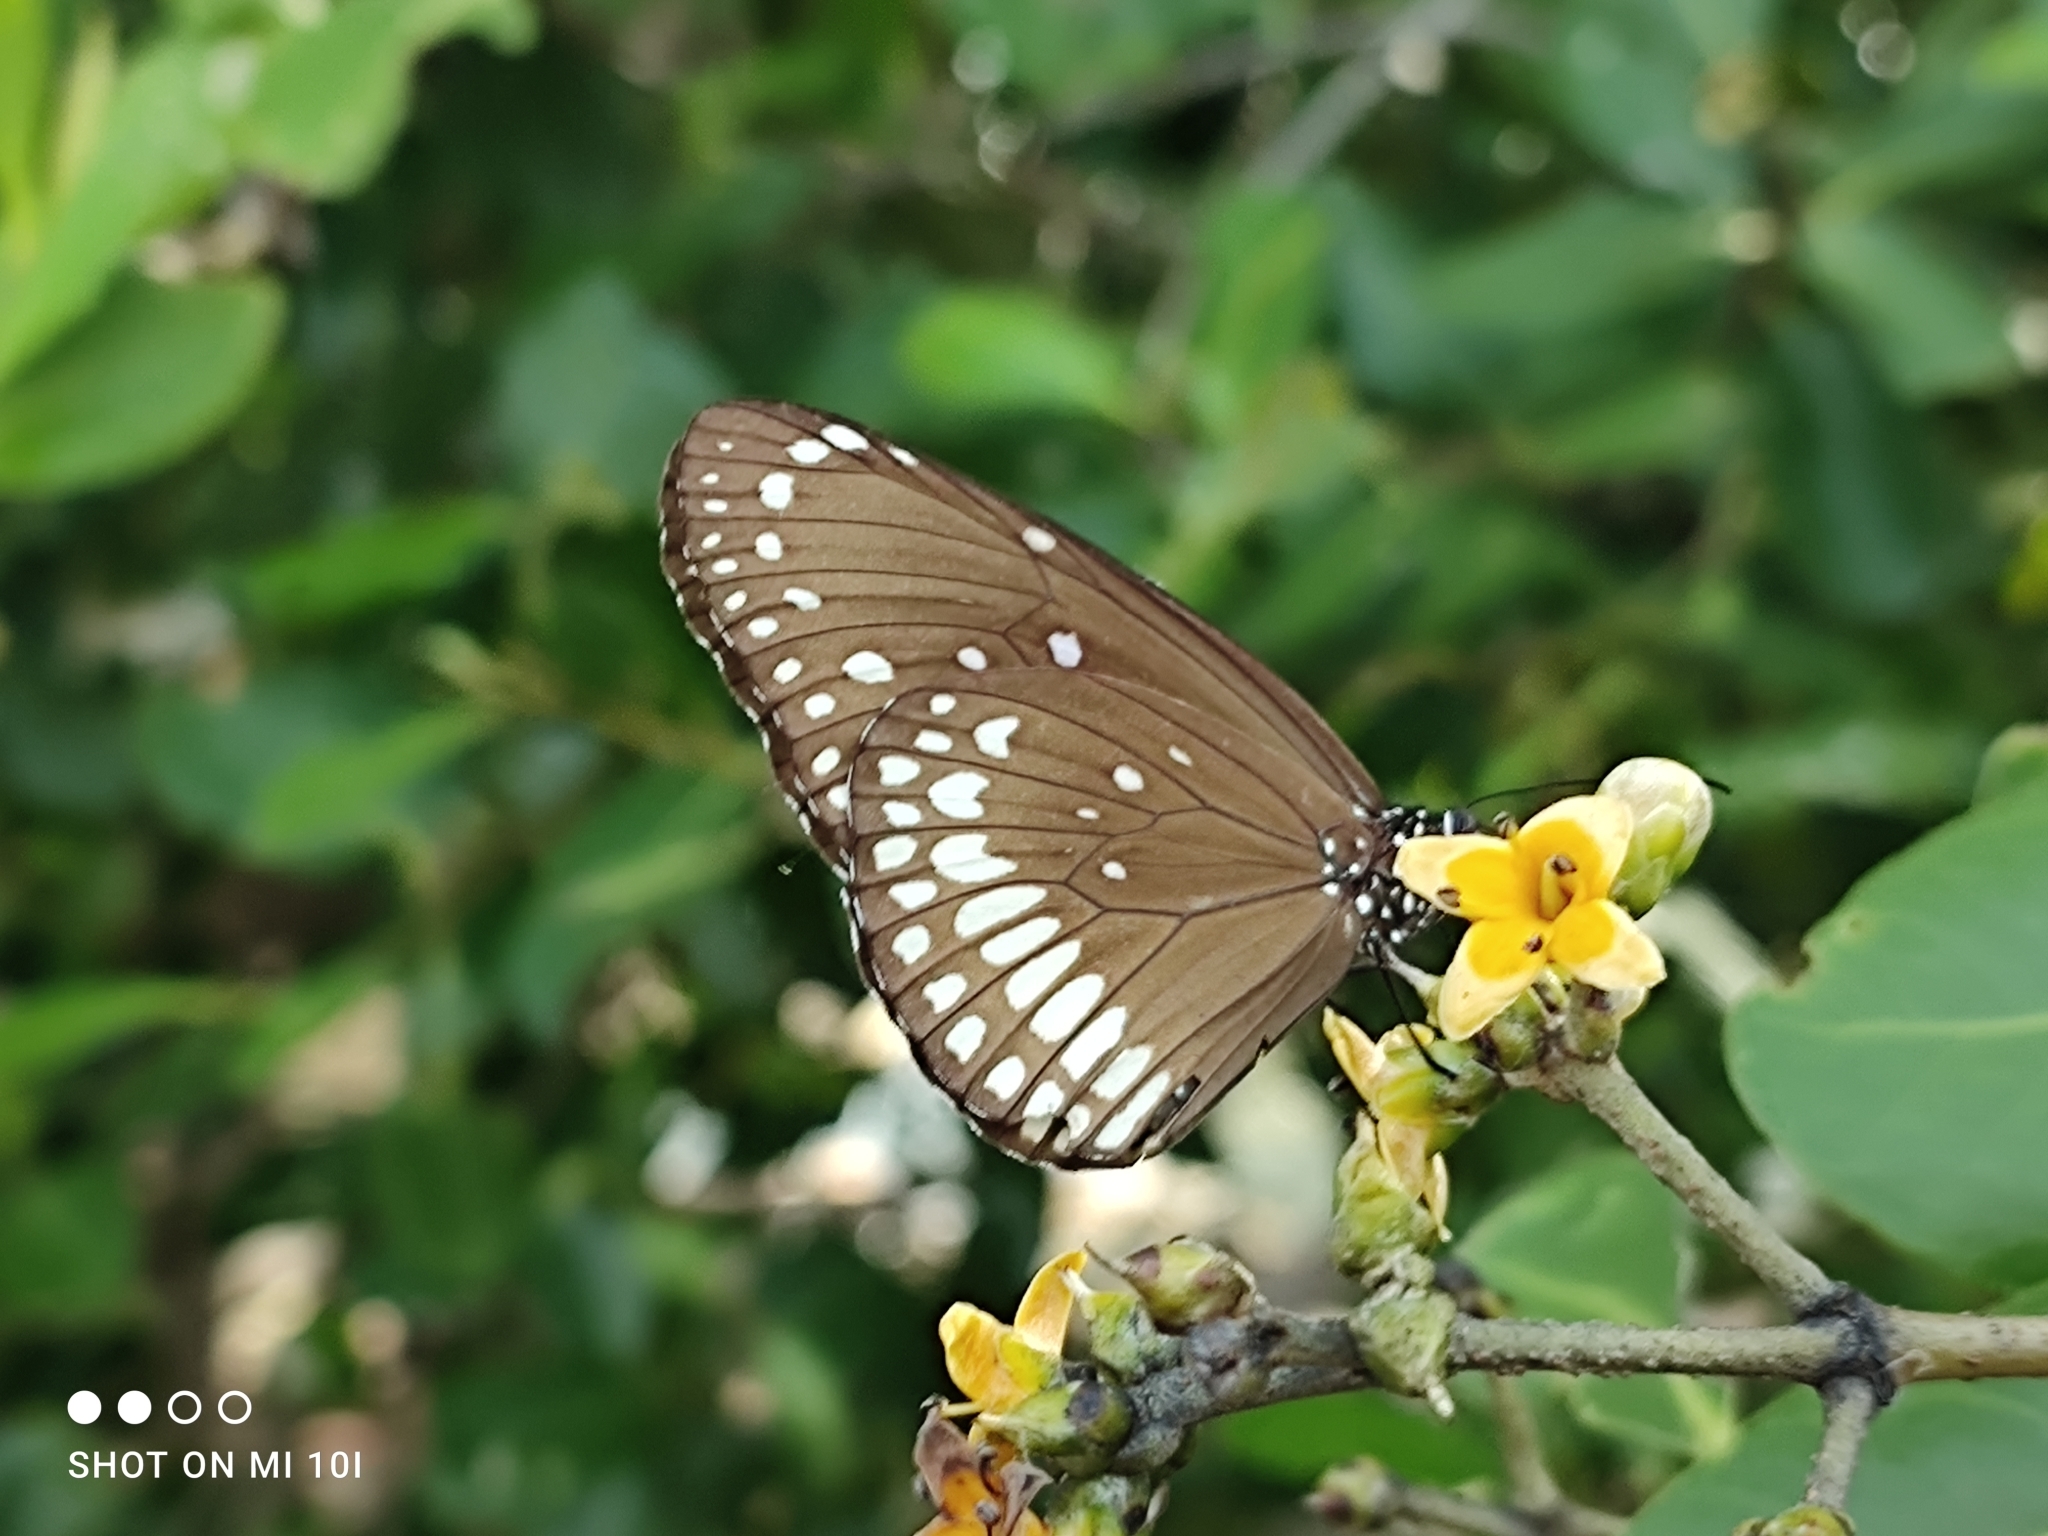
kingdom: Animalia
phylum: Arthropoda
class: Insecta
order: Lepidoptera
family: Nymphalidae
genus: Euploea
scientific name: Euploea core
